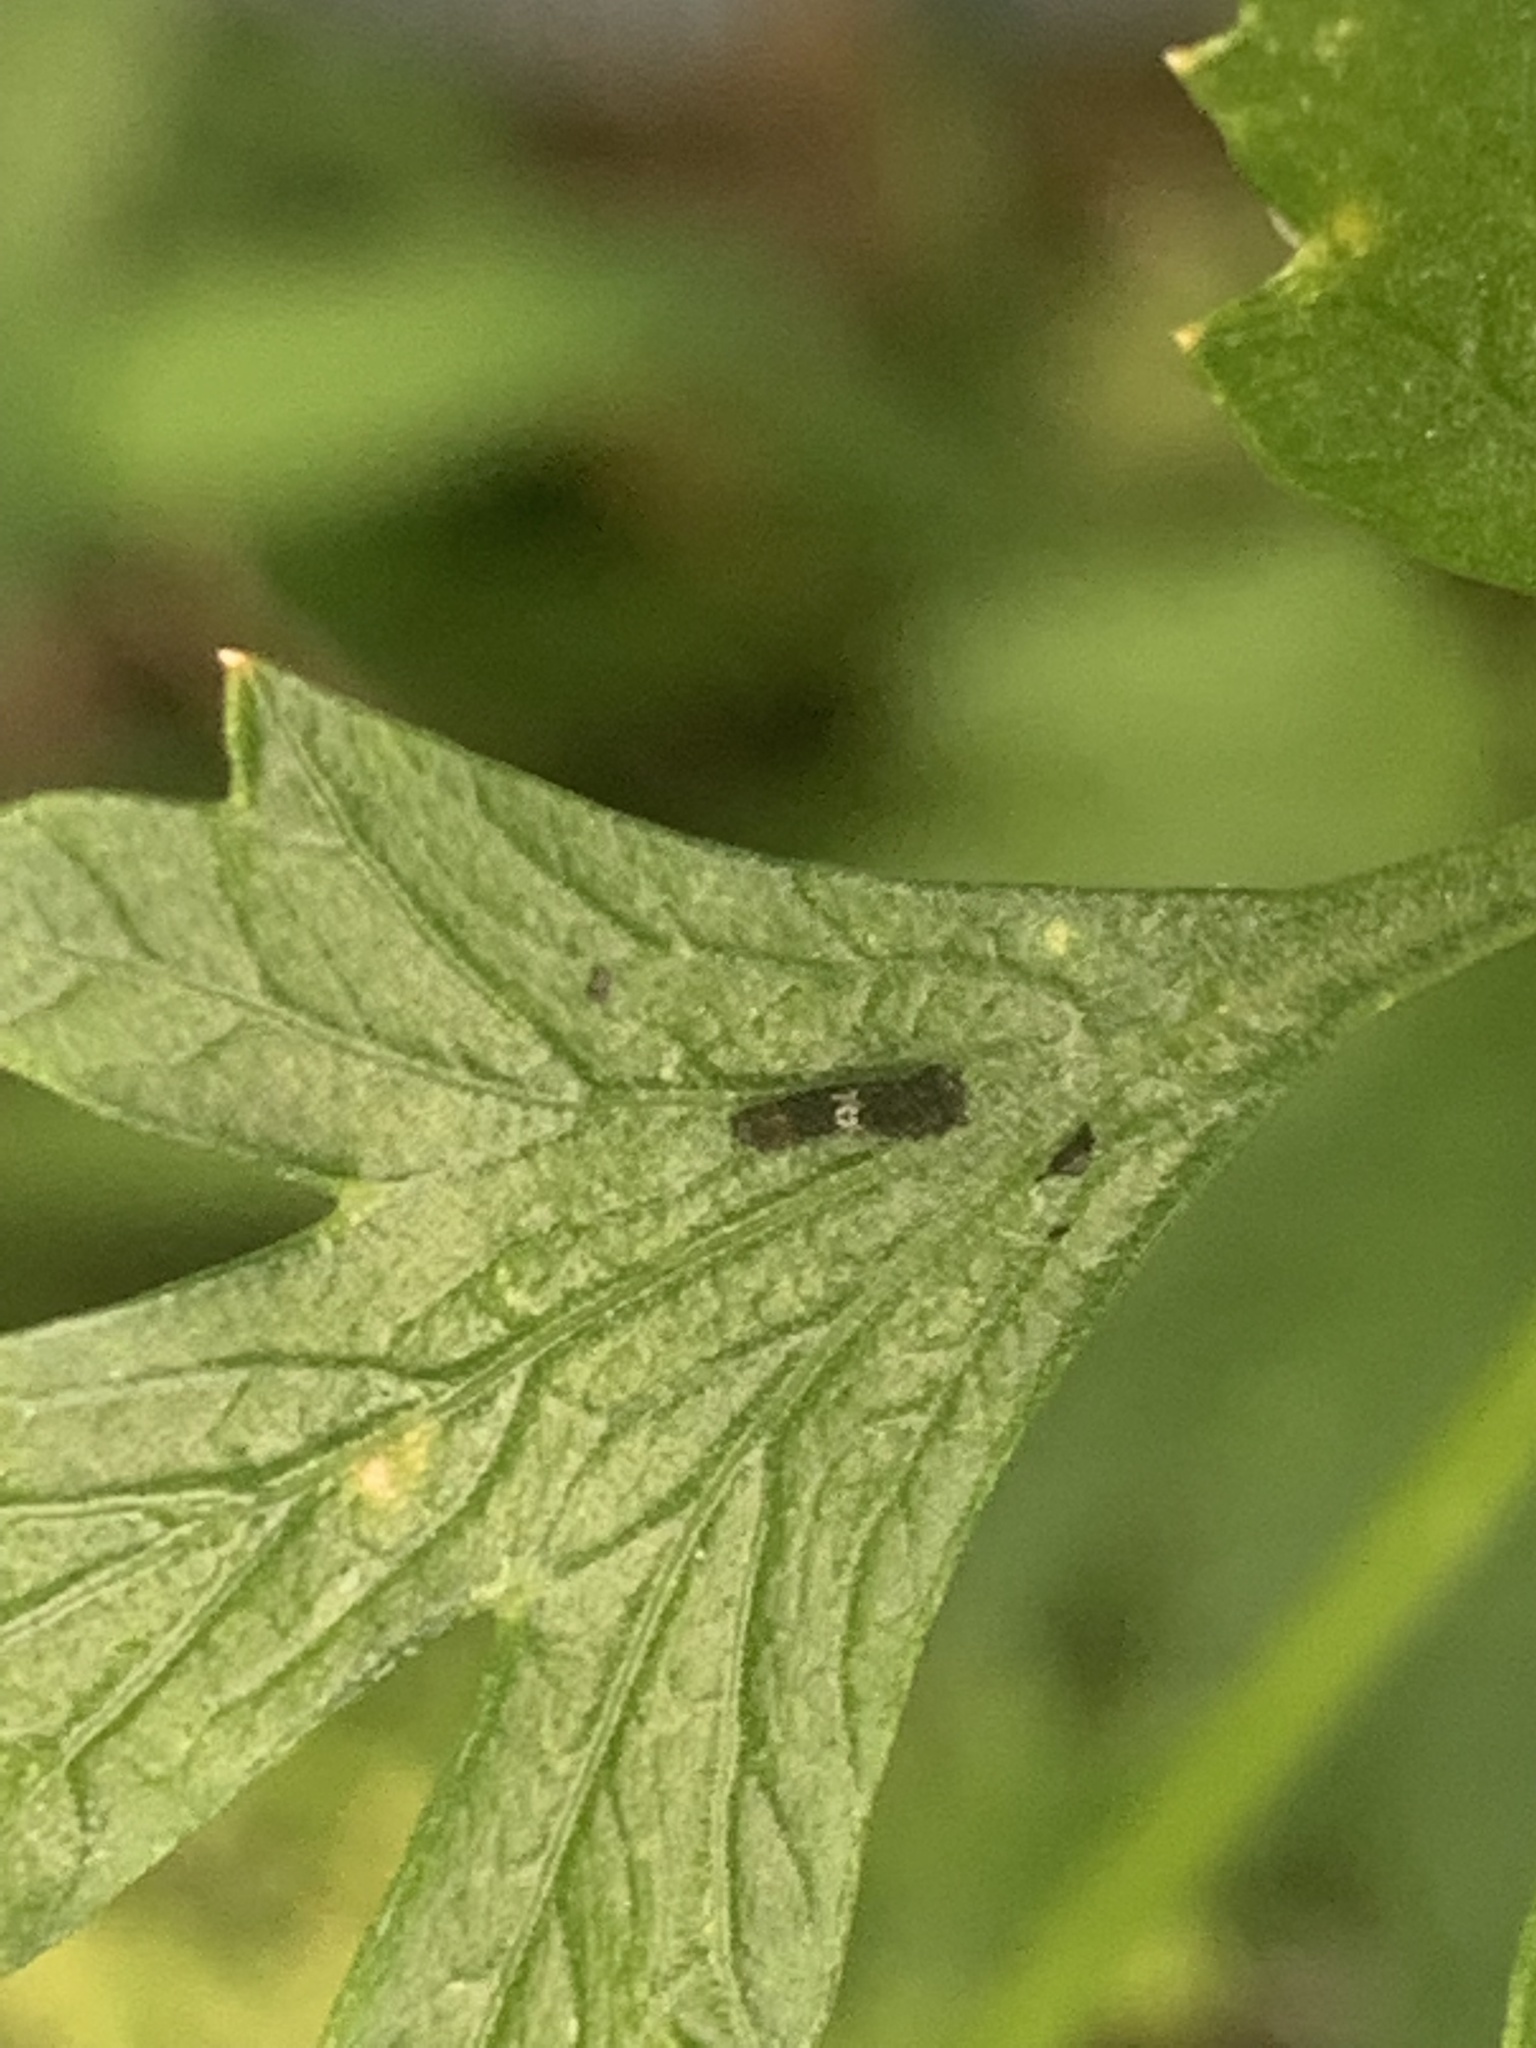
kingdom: Animalia
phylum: Arthropoda
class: Insecta
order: Lepidoptera
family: Papilionidae
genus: Papilio
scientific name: Papilio polyxenes
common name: Black swallowtail
